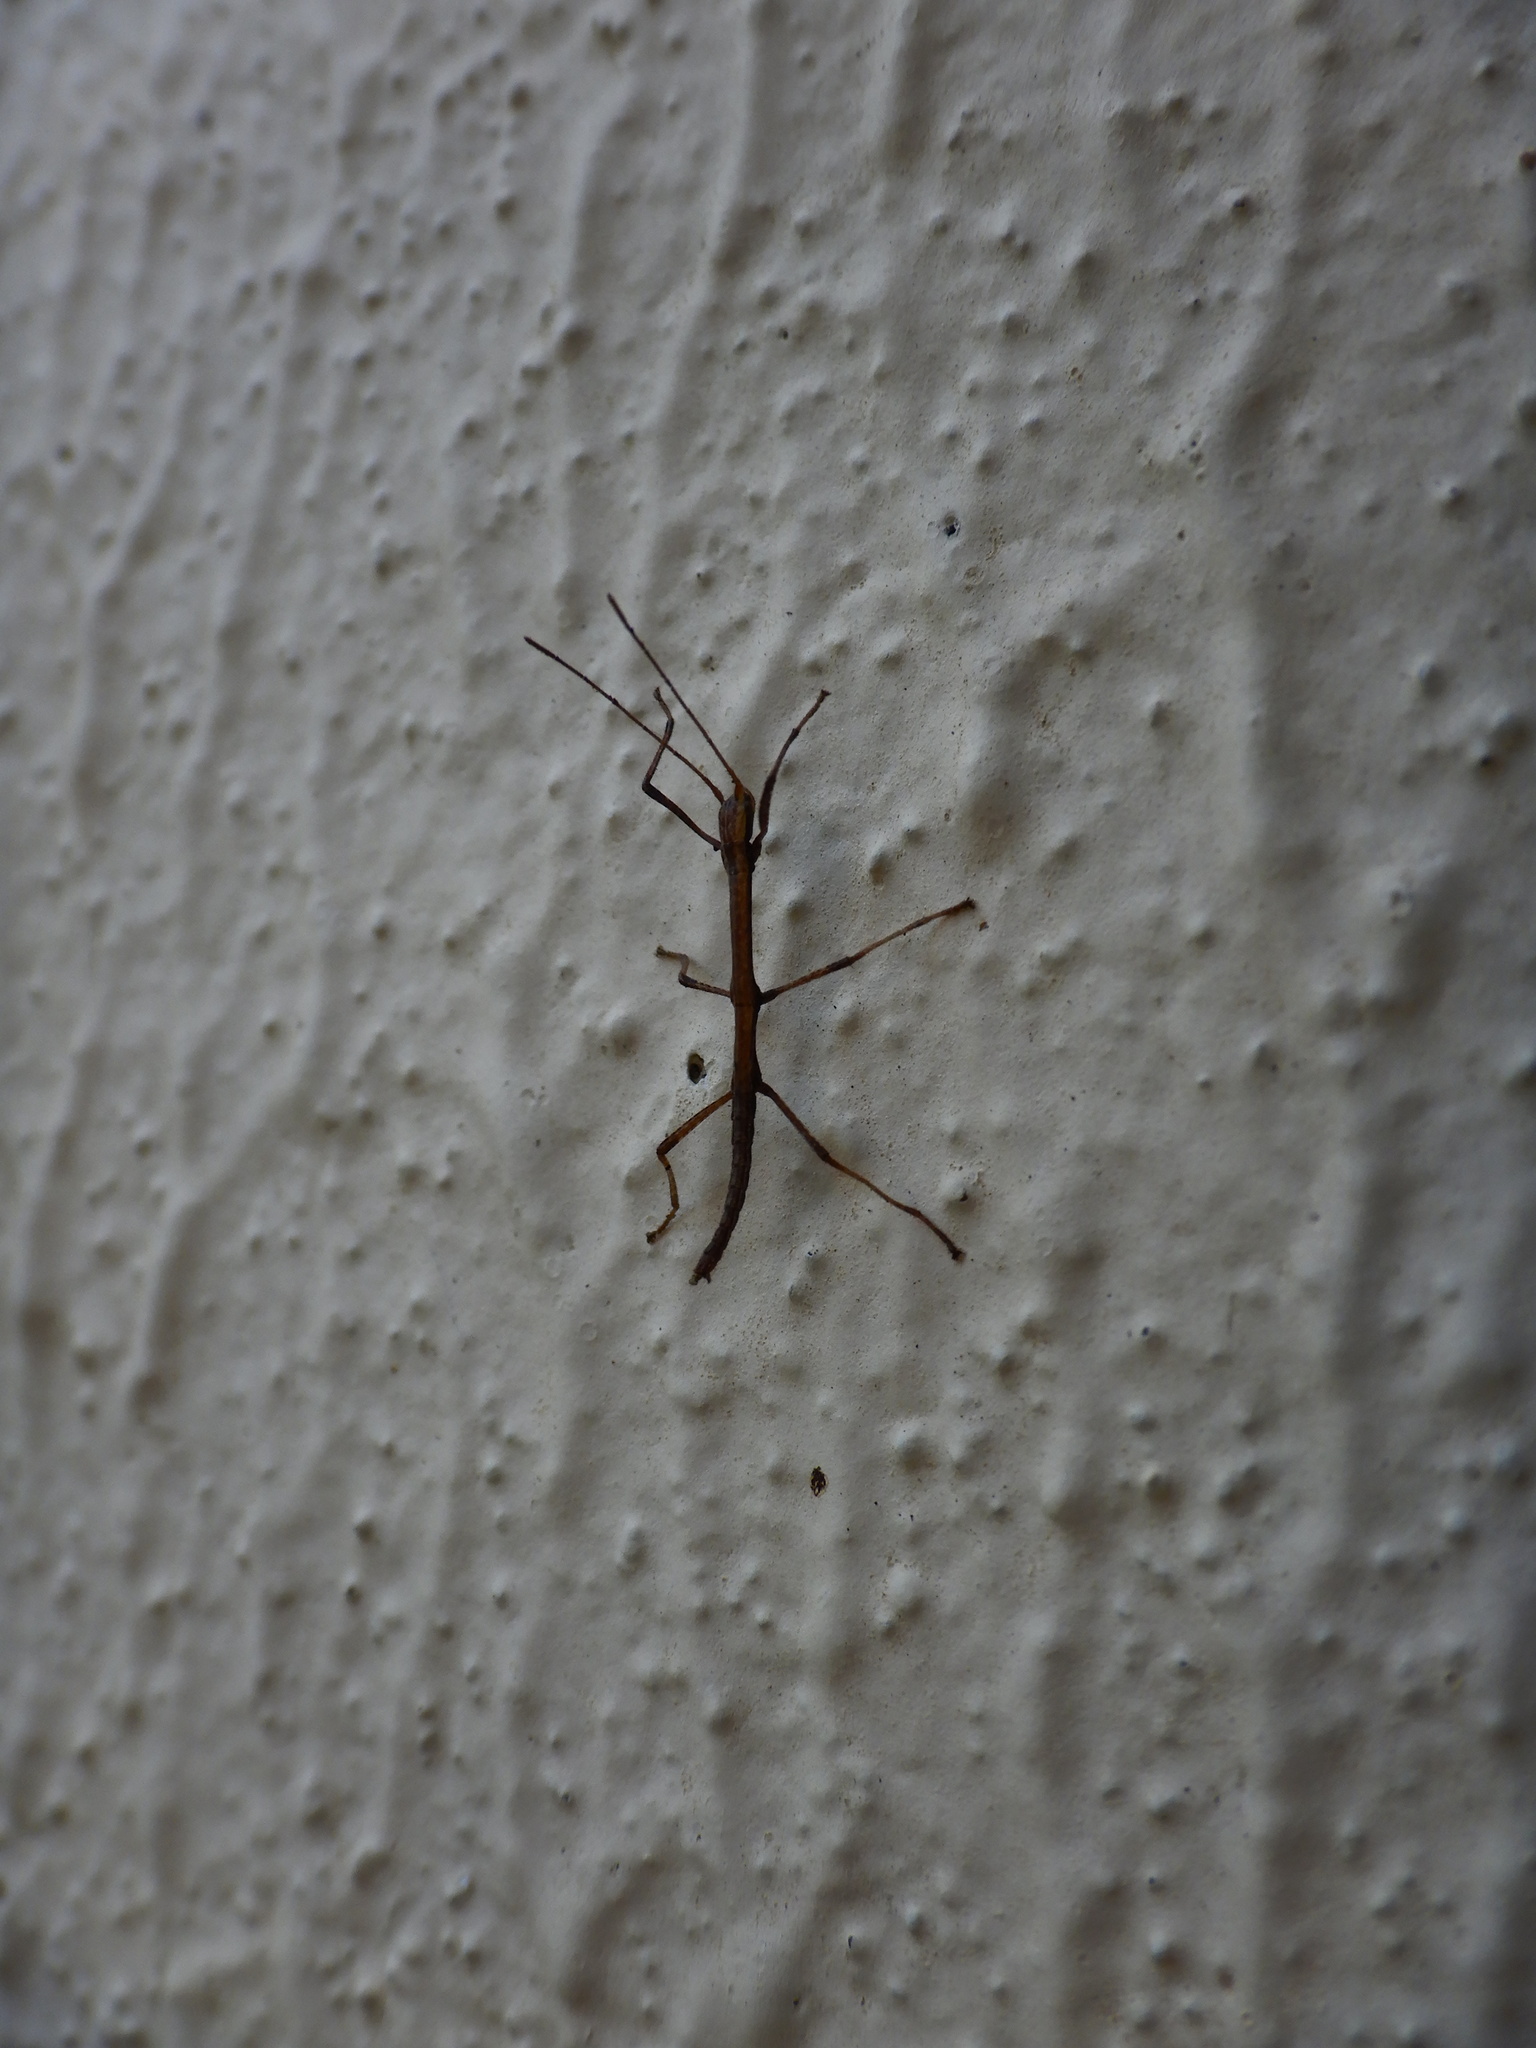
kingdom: Animalia
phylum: Arthropoda
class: Insecta
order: Phasmida
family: Lonchodidae
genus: Carausius
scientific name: Carausius morosus
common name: Indian stick insect
